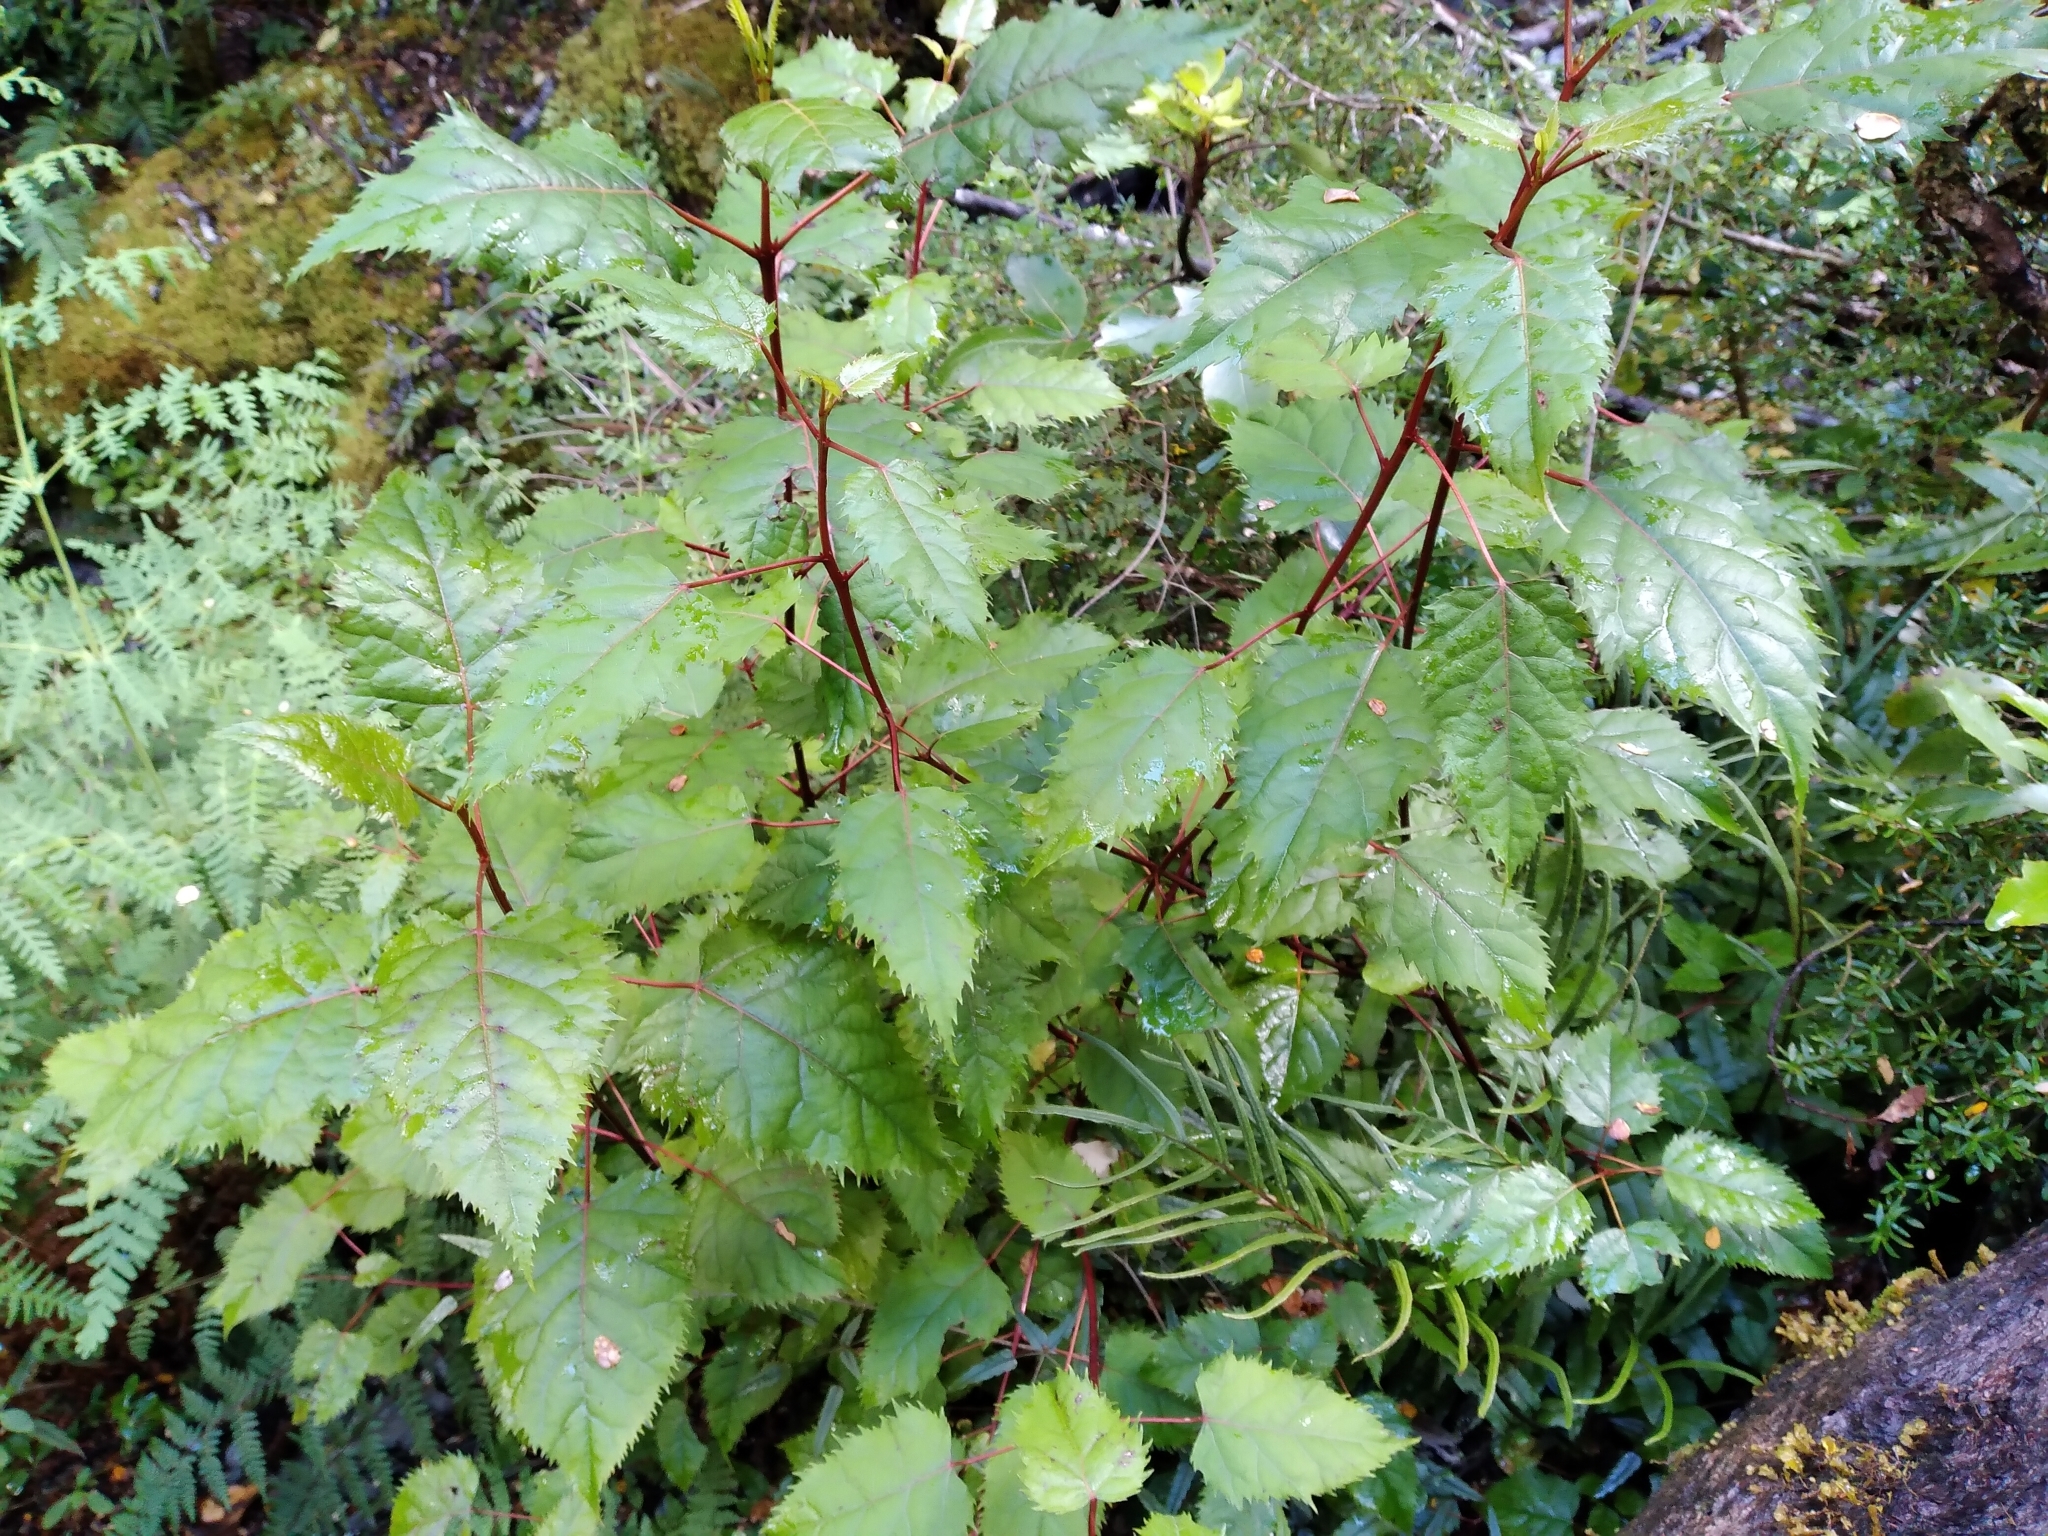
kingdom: Plantae
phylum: Tracheophyta
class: Magnoliopsida
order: Oxalidales
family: Elaeocarpaceae
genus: Aristotelia
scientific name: Aristotelia serrata
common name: New zealand wineberry
